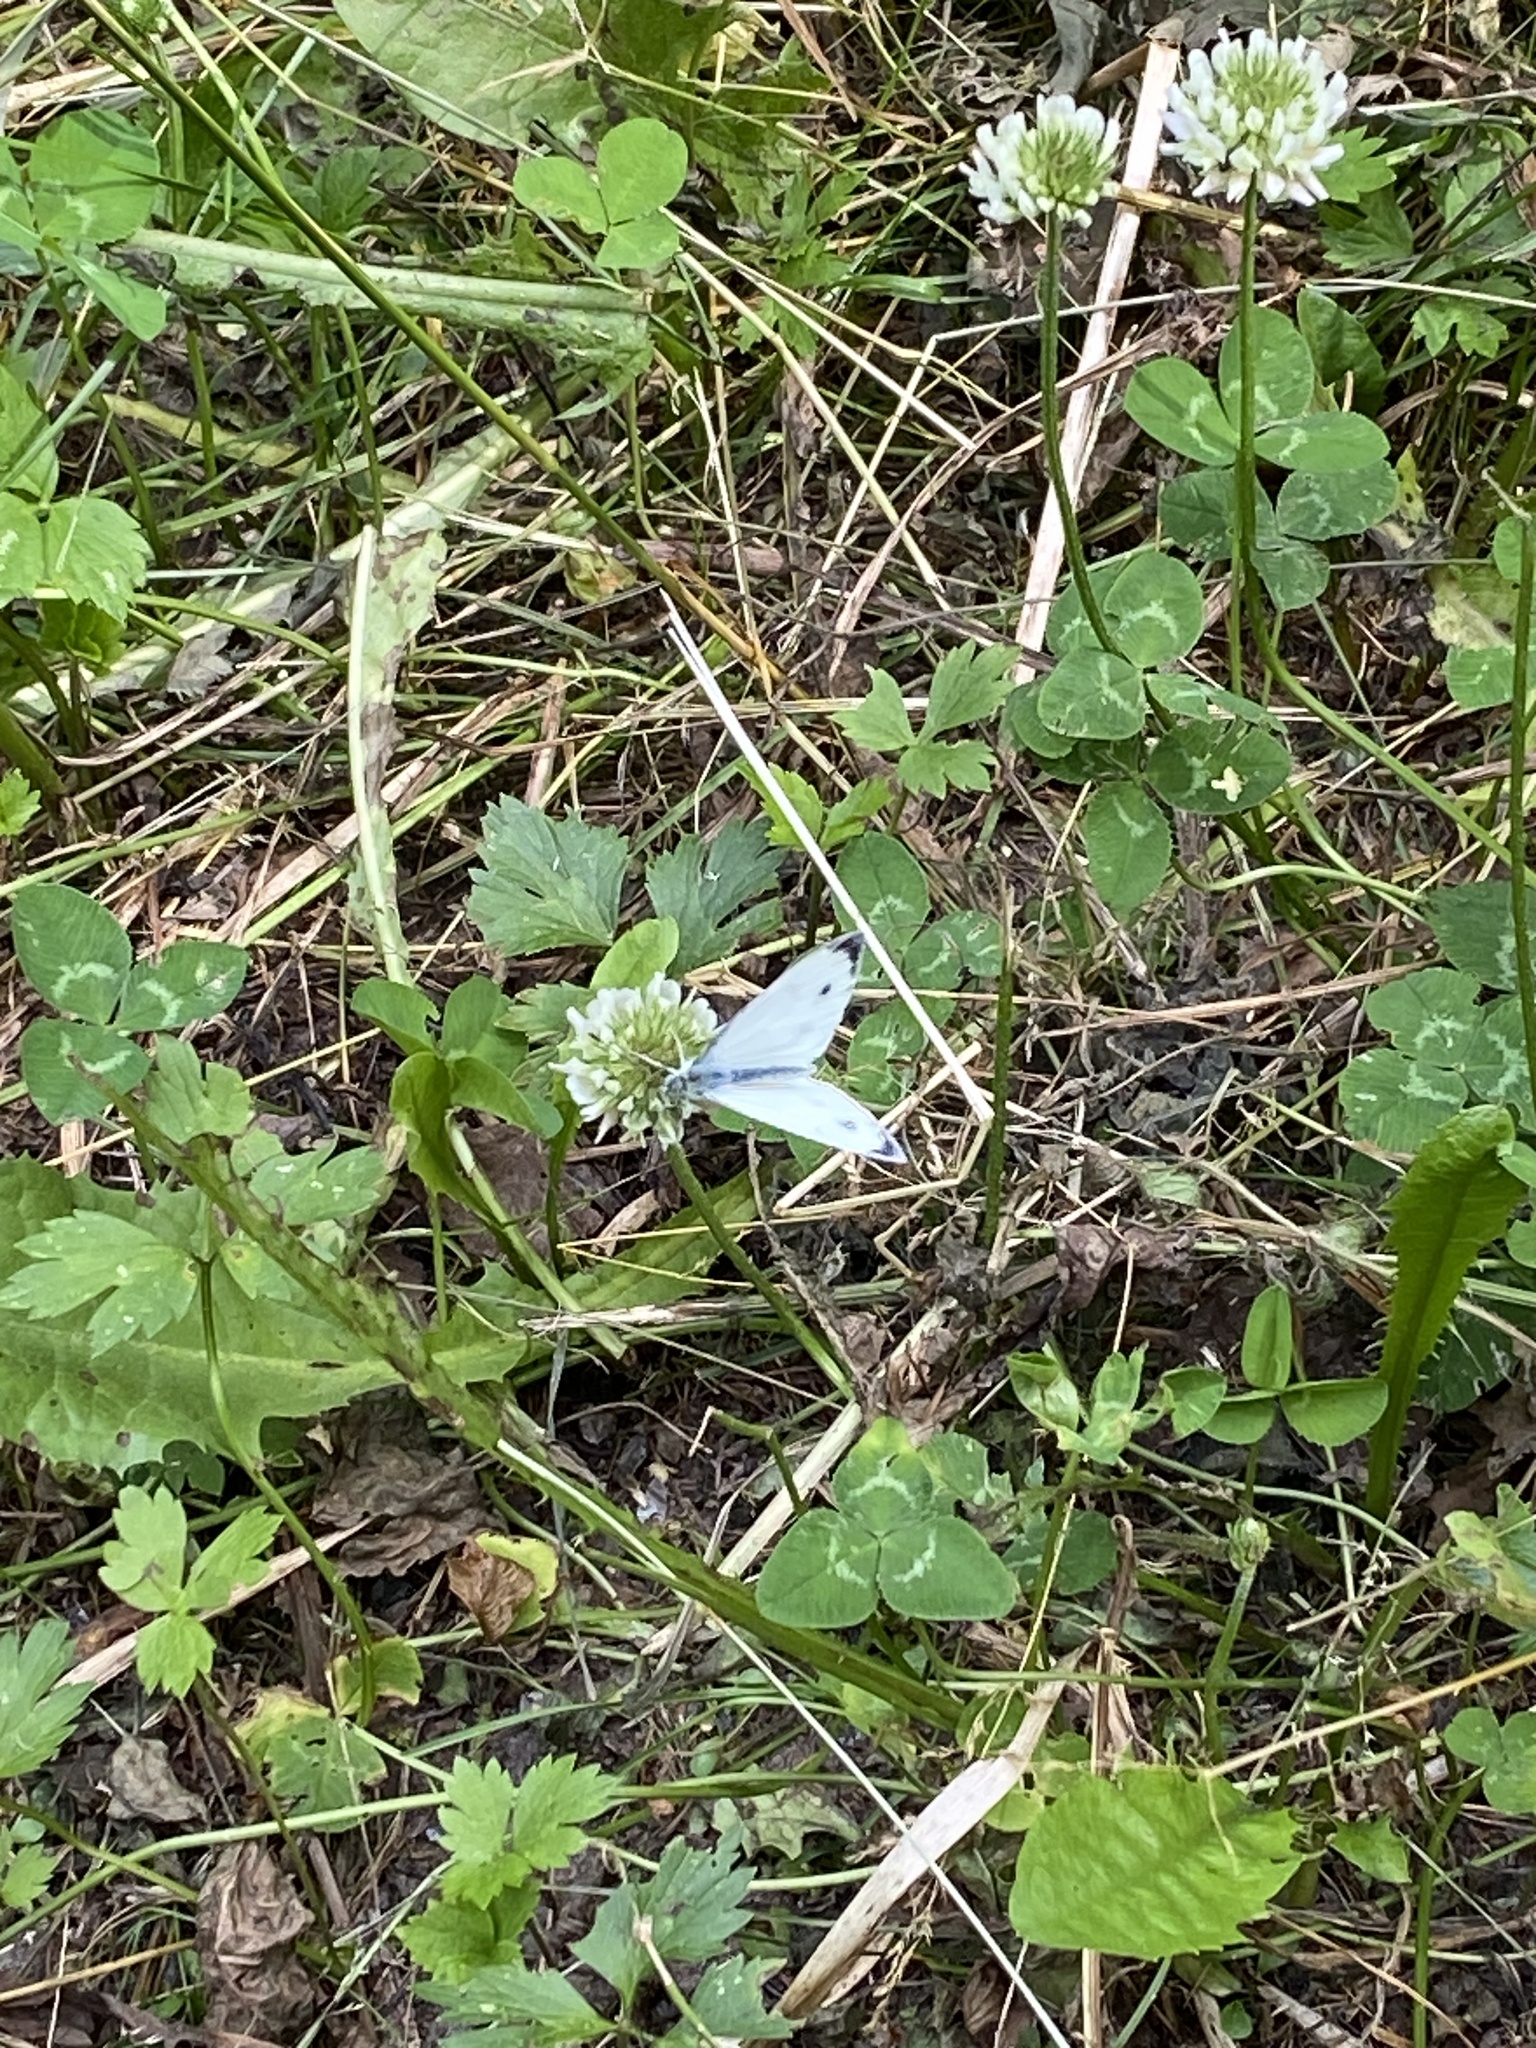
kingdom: Animalia
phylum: Arthropoda
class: Insecta
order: Lepidoptera
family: Pieridae
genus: Pieris
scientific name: Pieris napi
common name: Green-veined white
